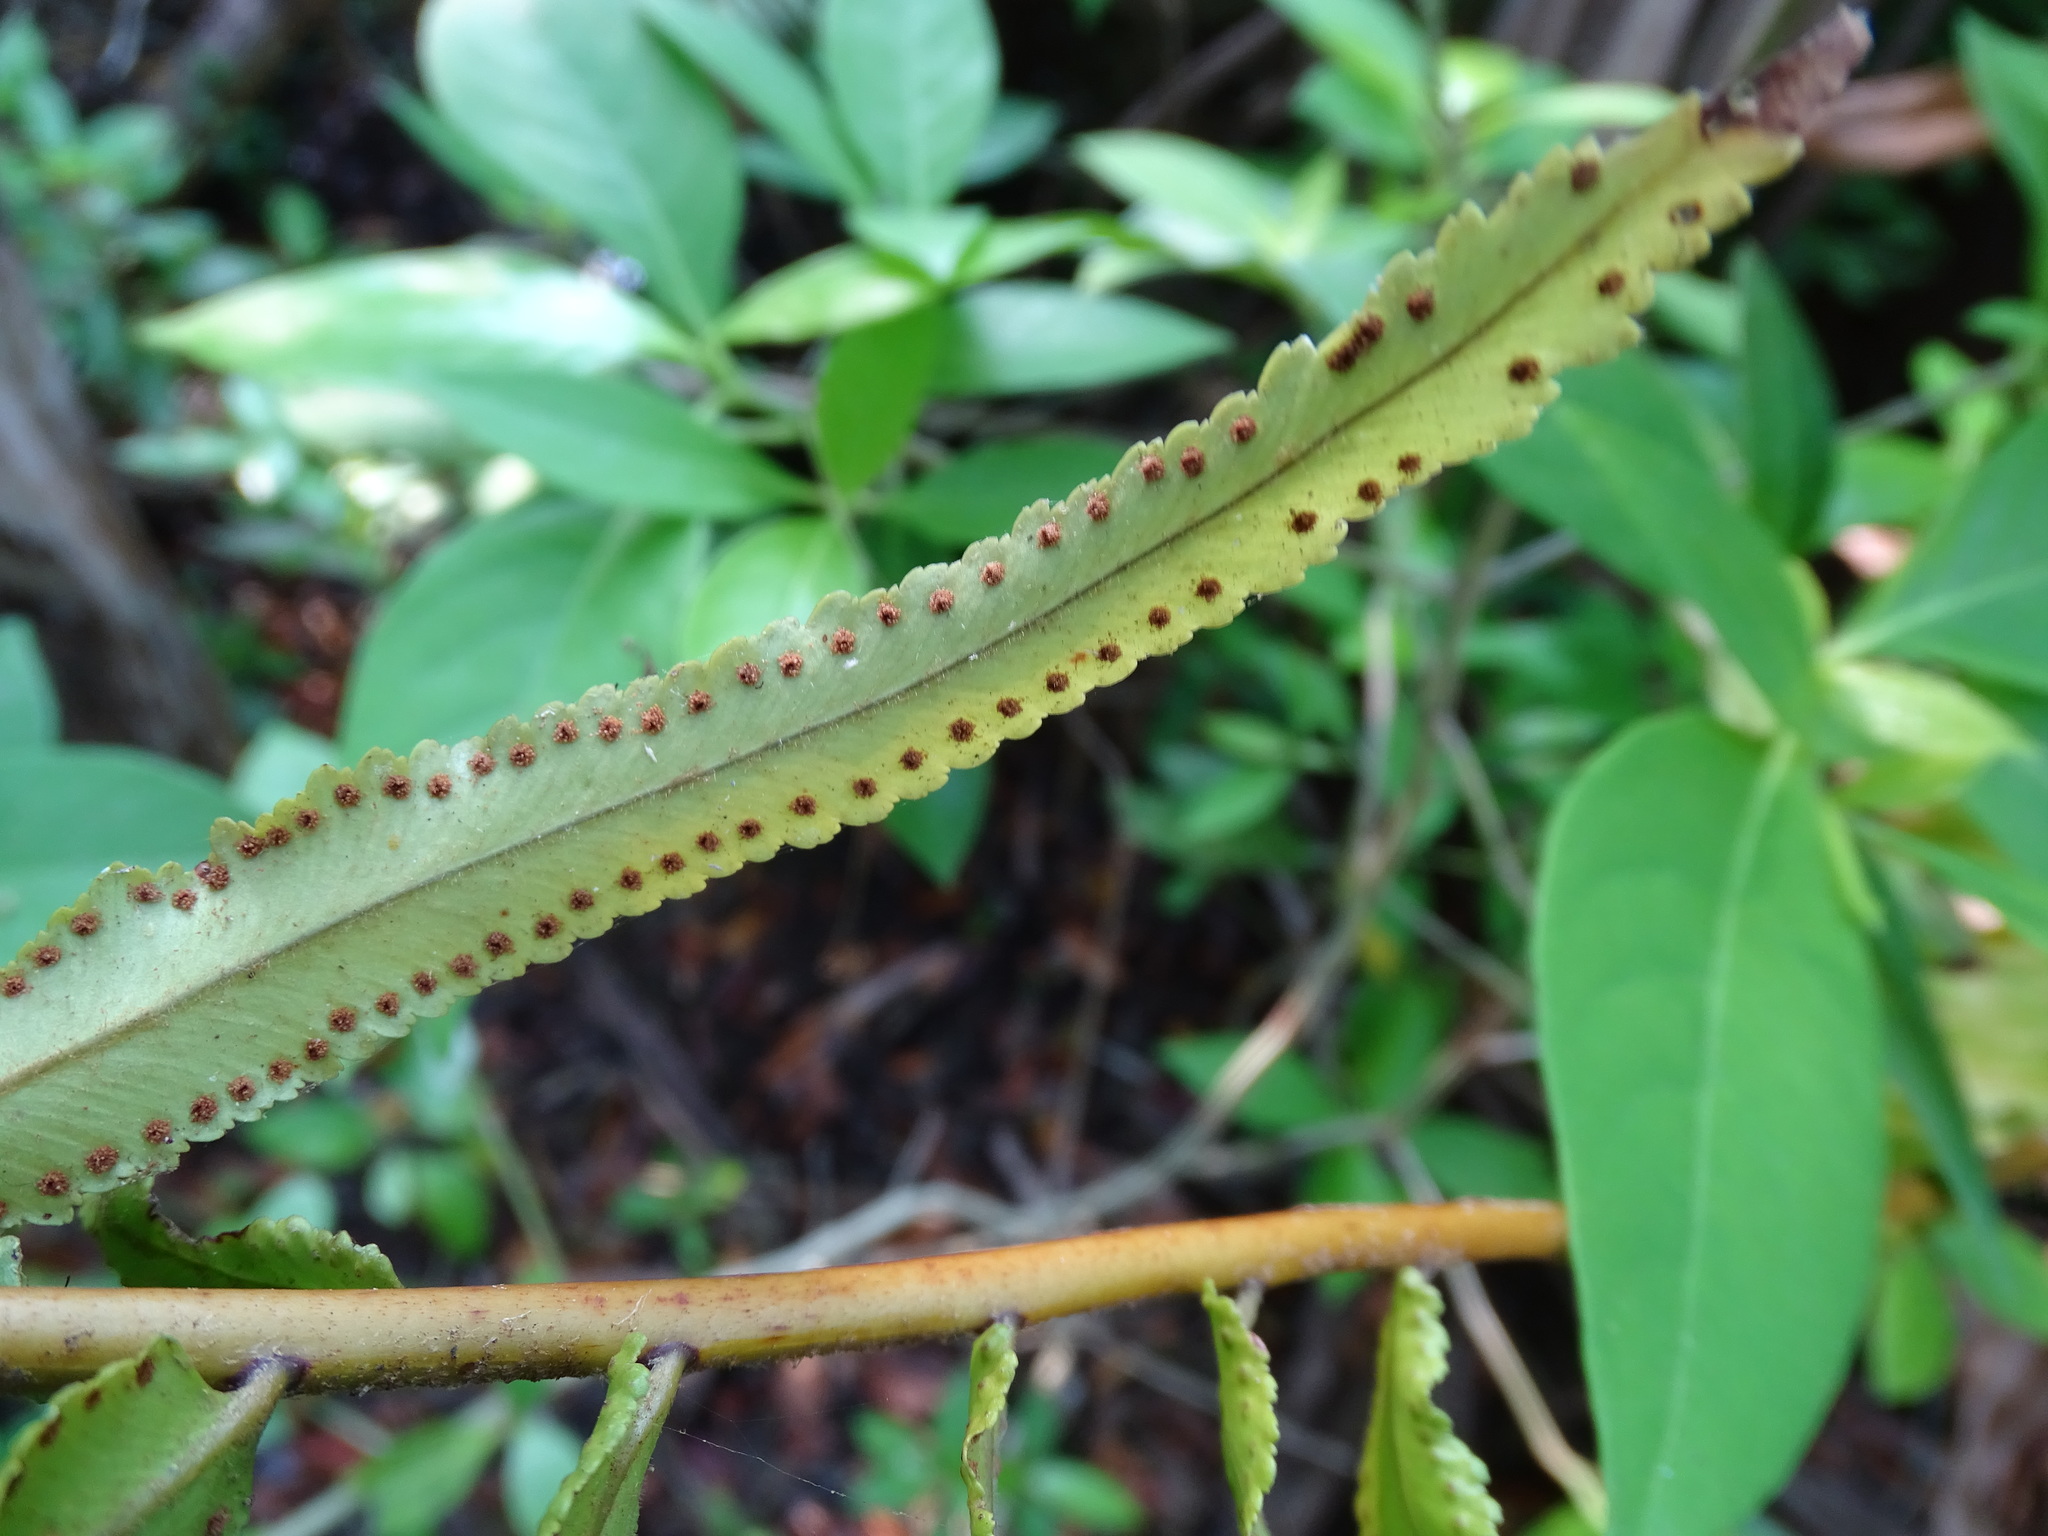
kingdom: Plantae
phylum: Tracheophyta
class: Polypodiopsida
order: Polypodiales
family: Nephrolepidaceae
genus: Nephrolepis
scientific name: Nephrolepis biserrata
